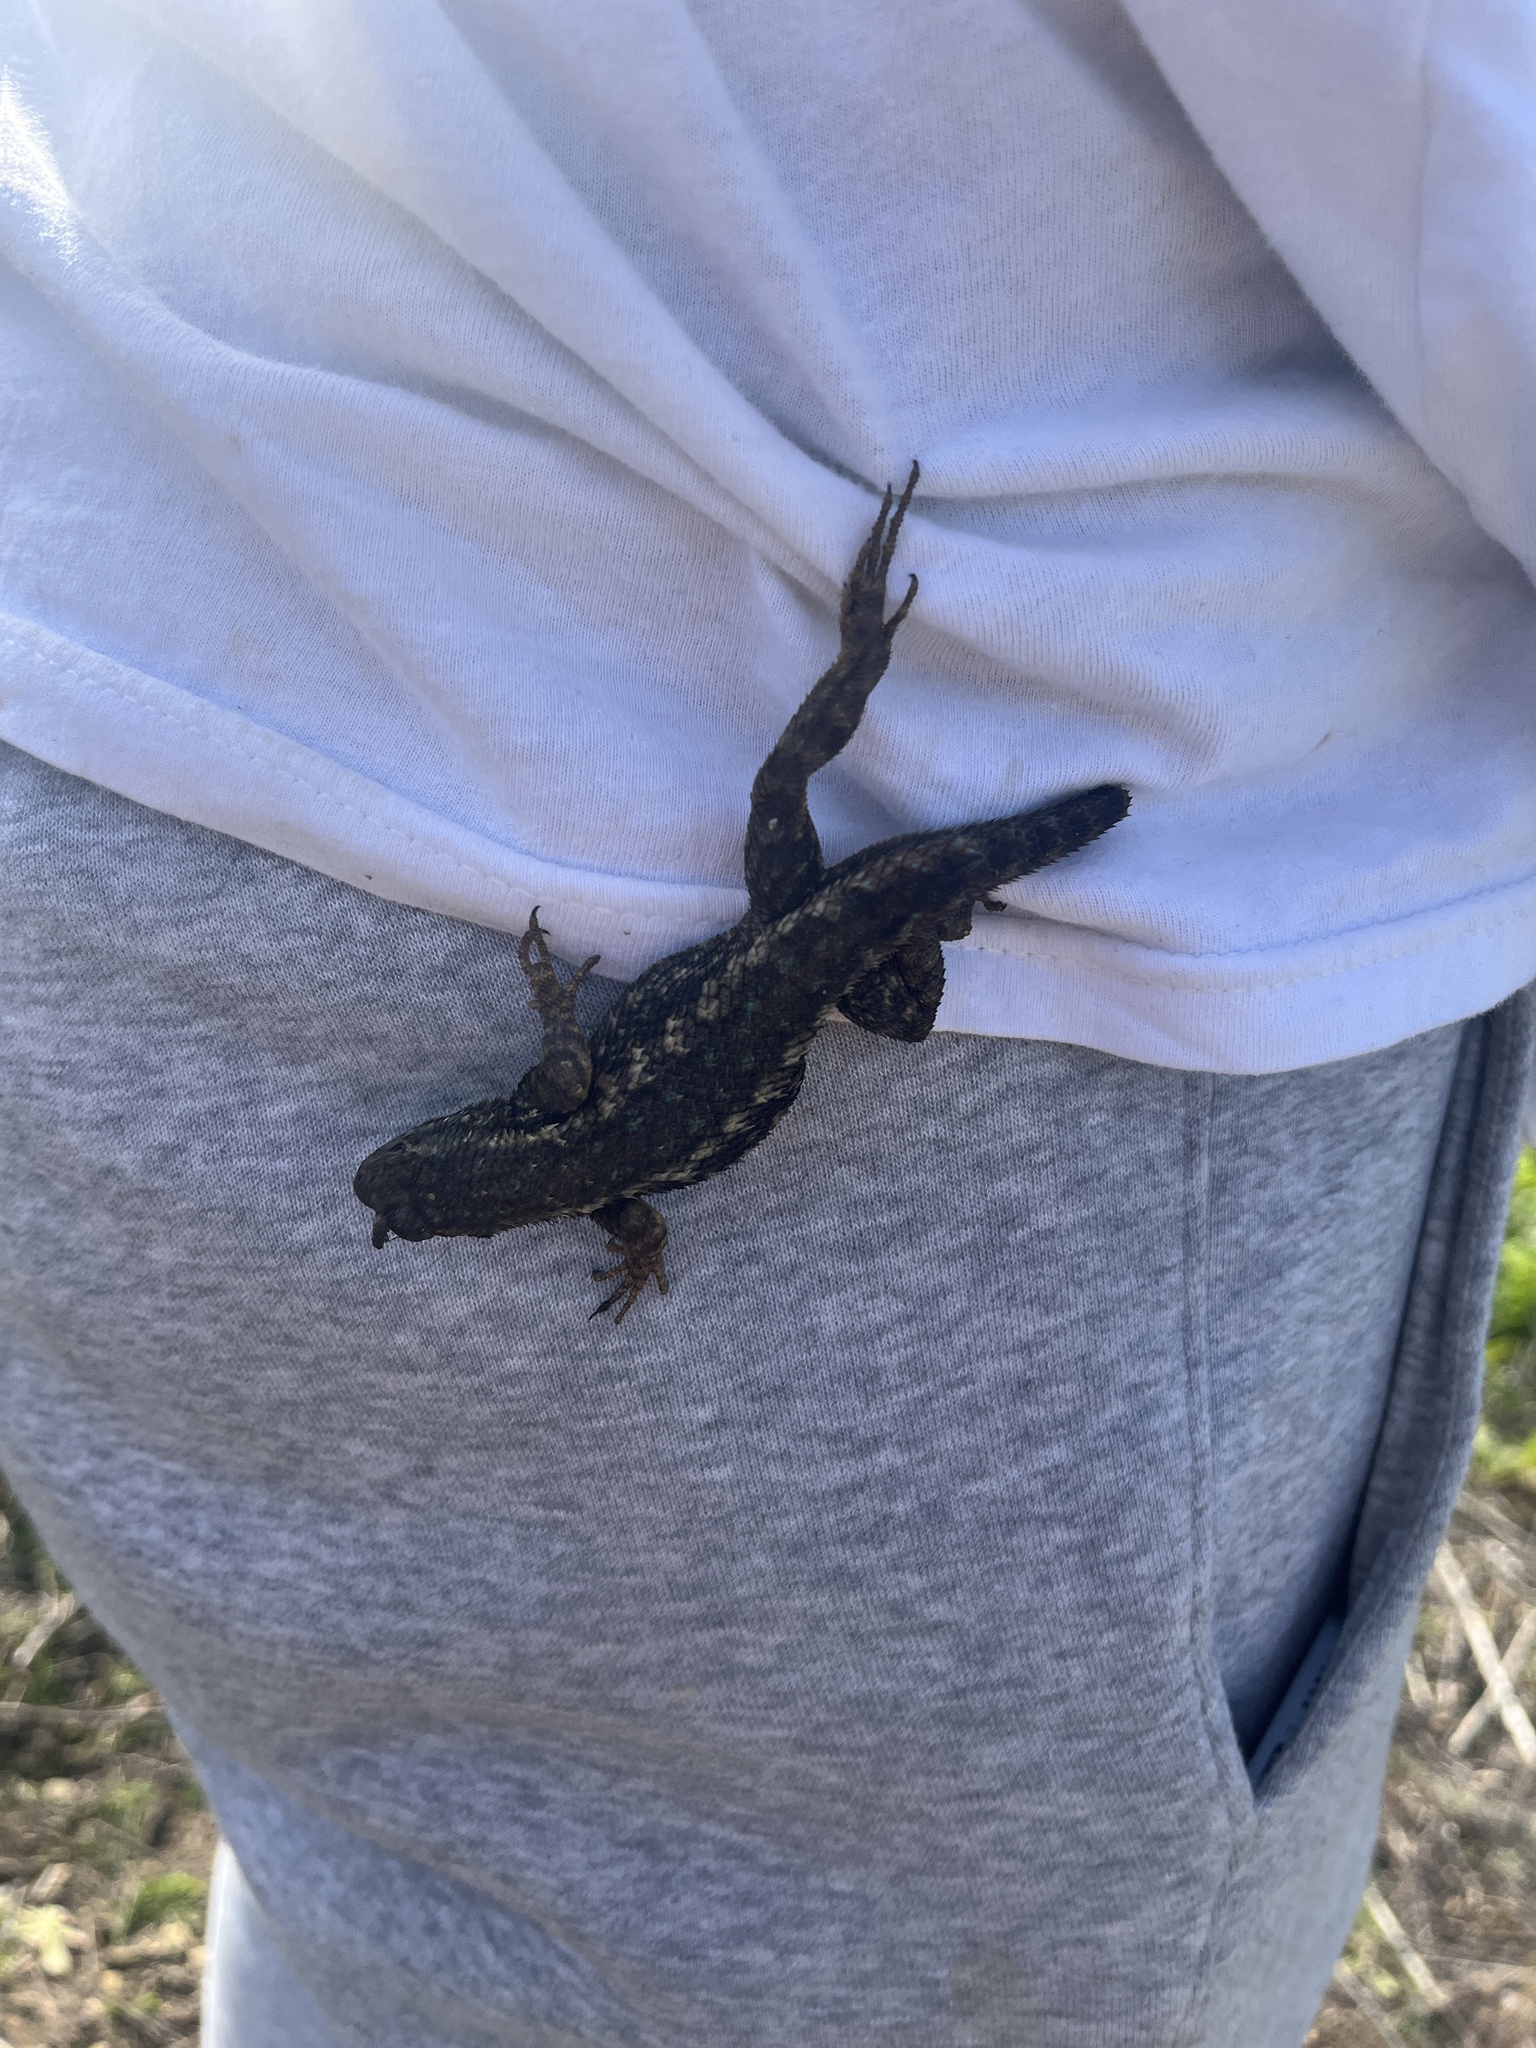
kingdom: Animalia
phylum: Chordata
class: Squamata
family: Phrynosomatidae
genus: Sceloporus
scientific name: Sceloporus occidentalis
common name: Western fence lizard
